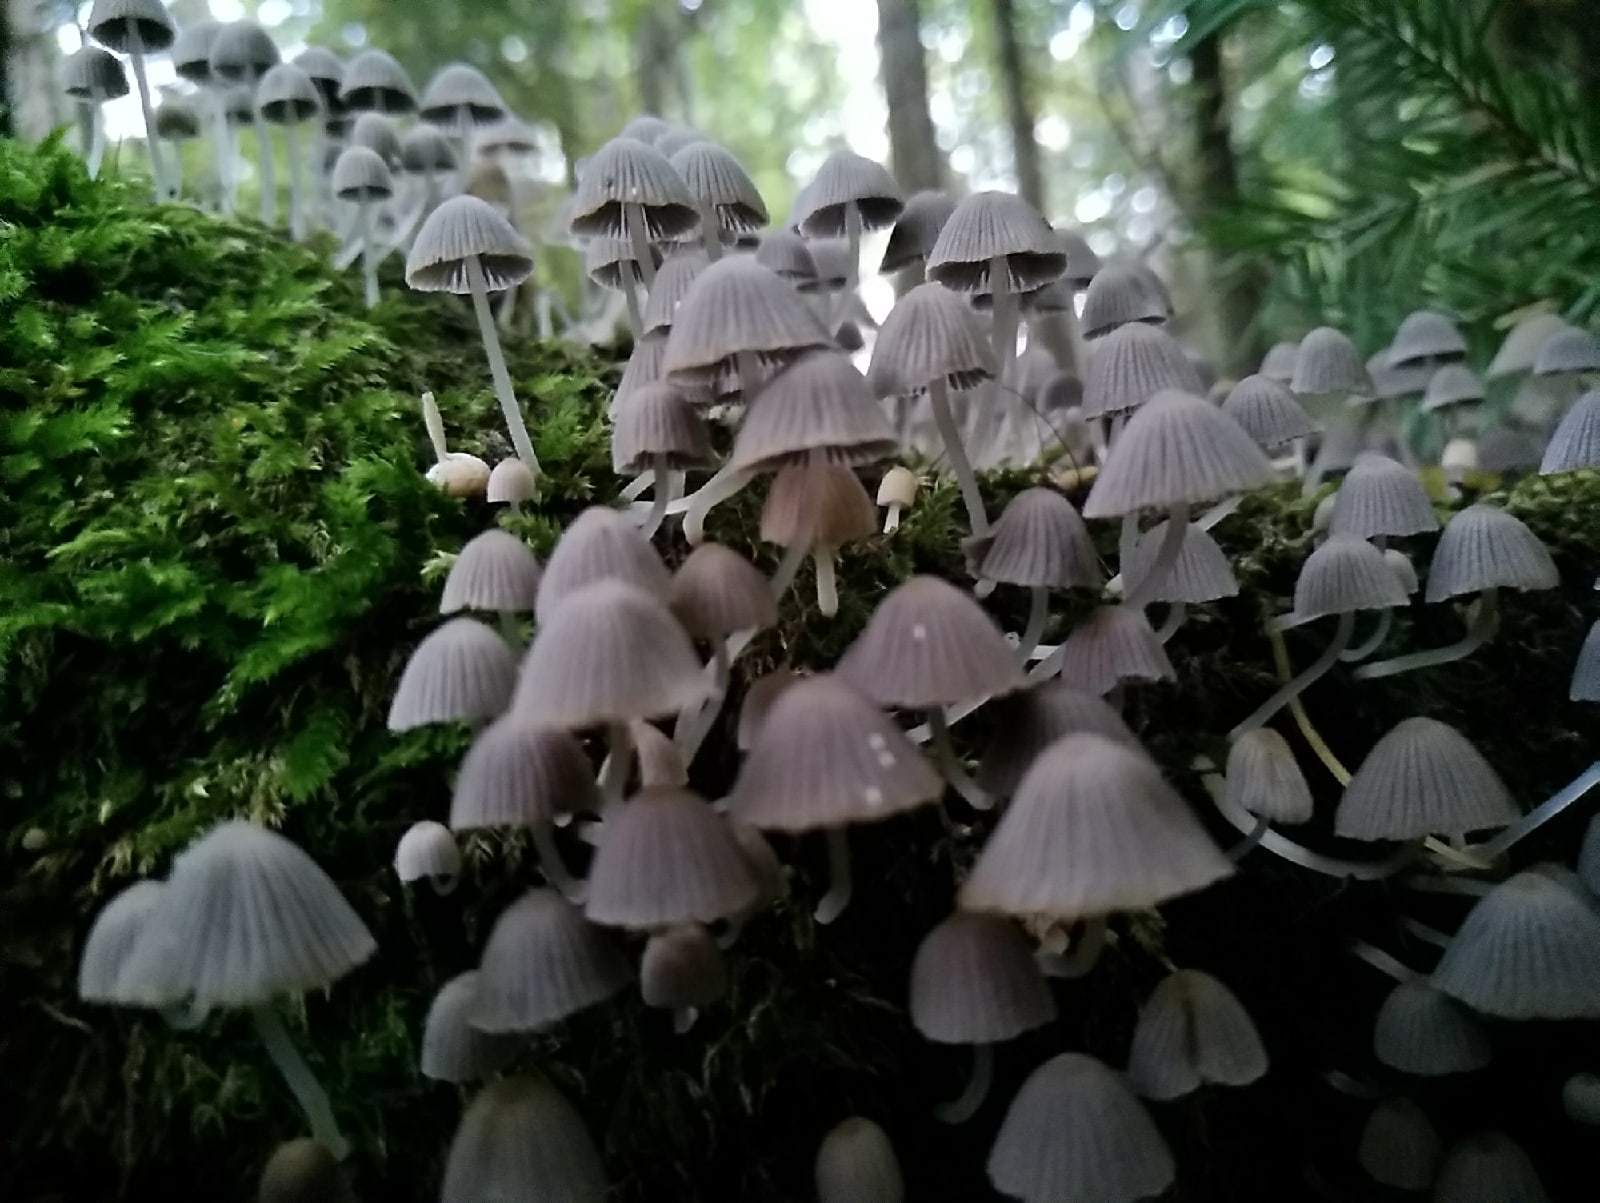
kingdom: Fungi
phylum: Basidiomycota
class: Agaricomycetes
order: Agaricales
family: Psathyrellaceae
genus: Coprinellus
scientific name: Coprinellus disseminatus
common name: Fairies' bonnets
